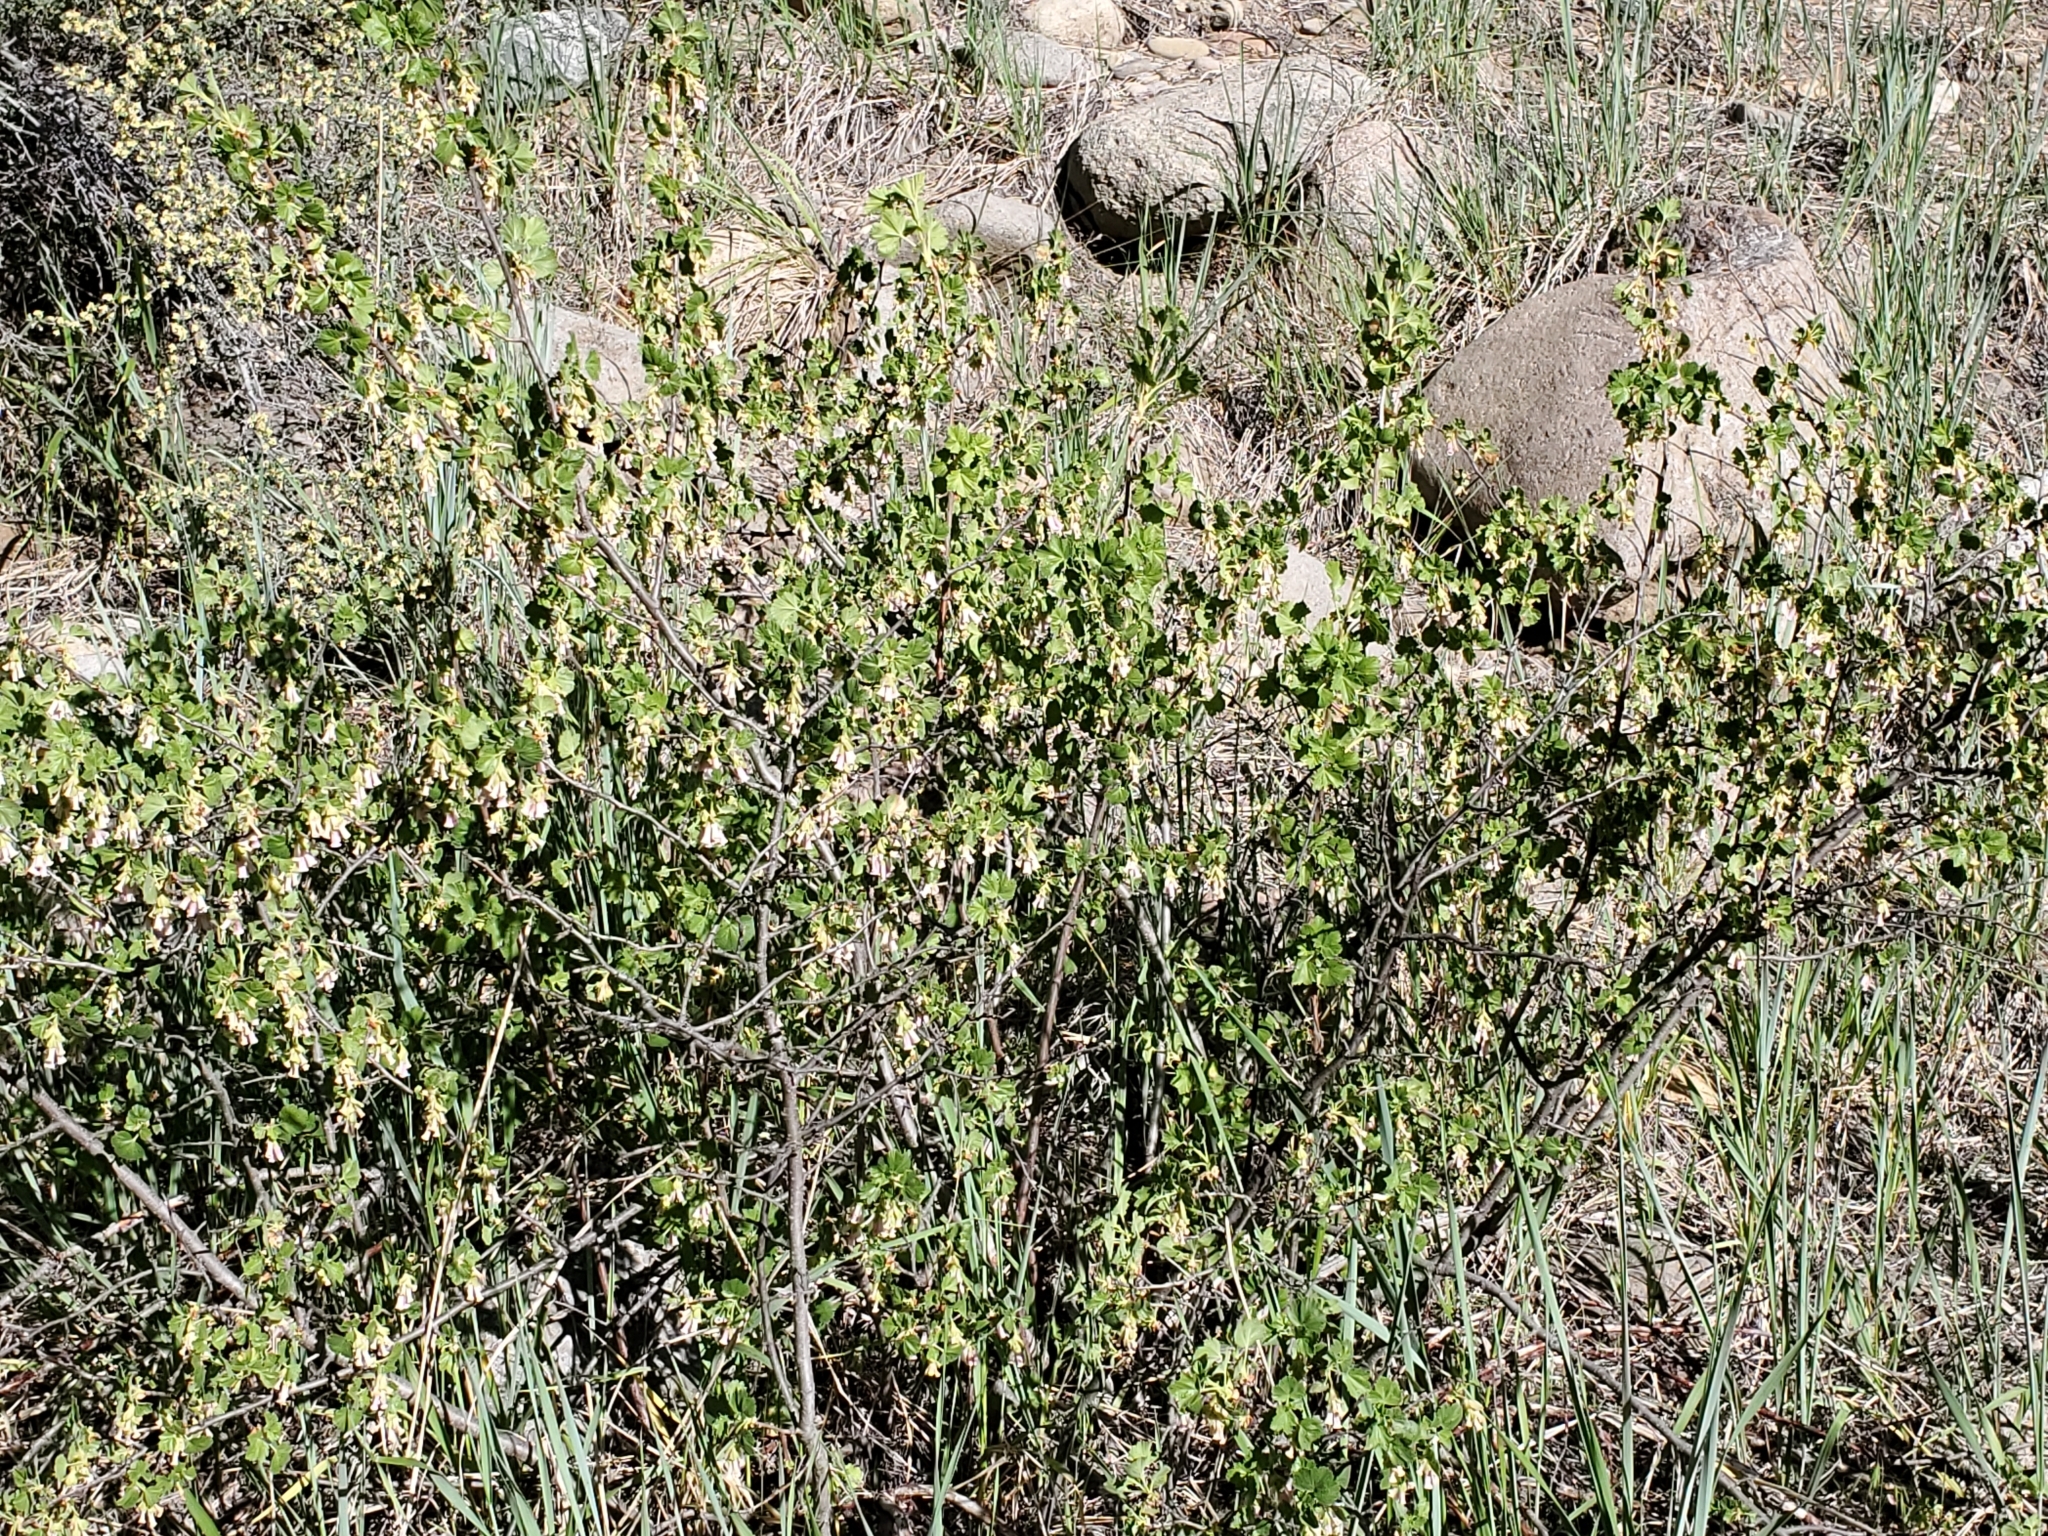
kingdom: Plantae
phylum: Tracheophyta
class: Magnoliopsida
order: Saxifragales
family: Grossulariaceae
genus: Ribes
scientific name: Ribes cereum
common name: Wax currant
